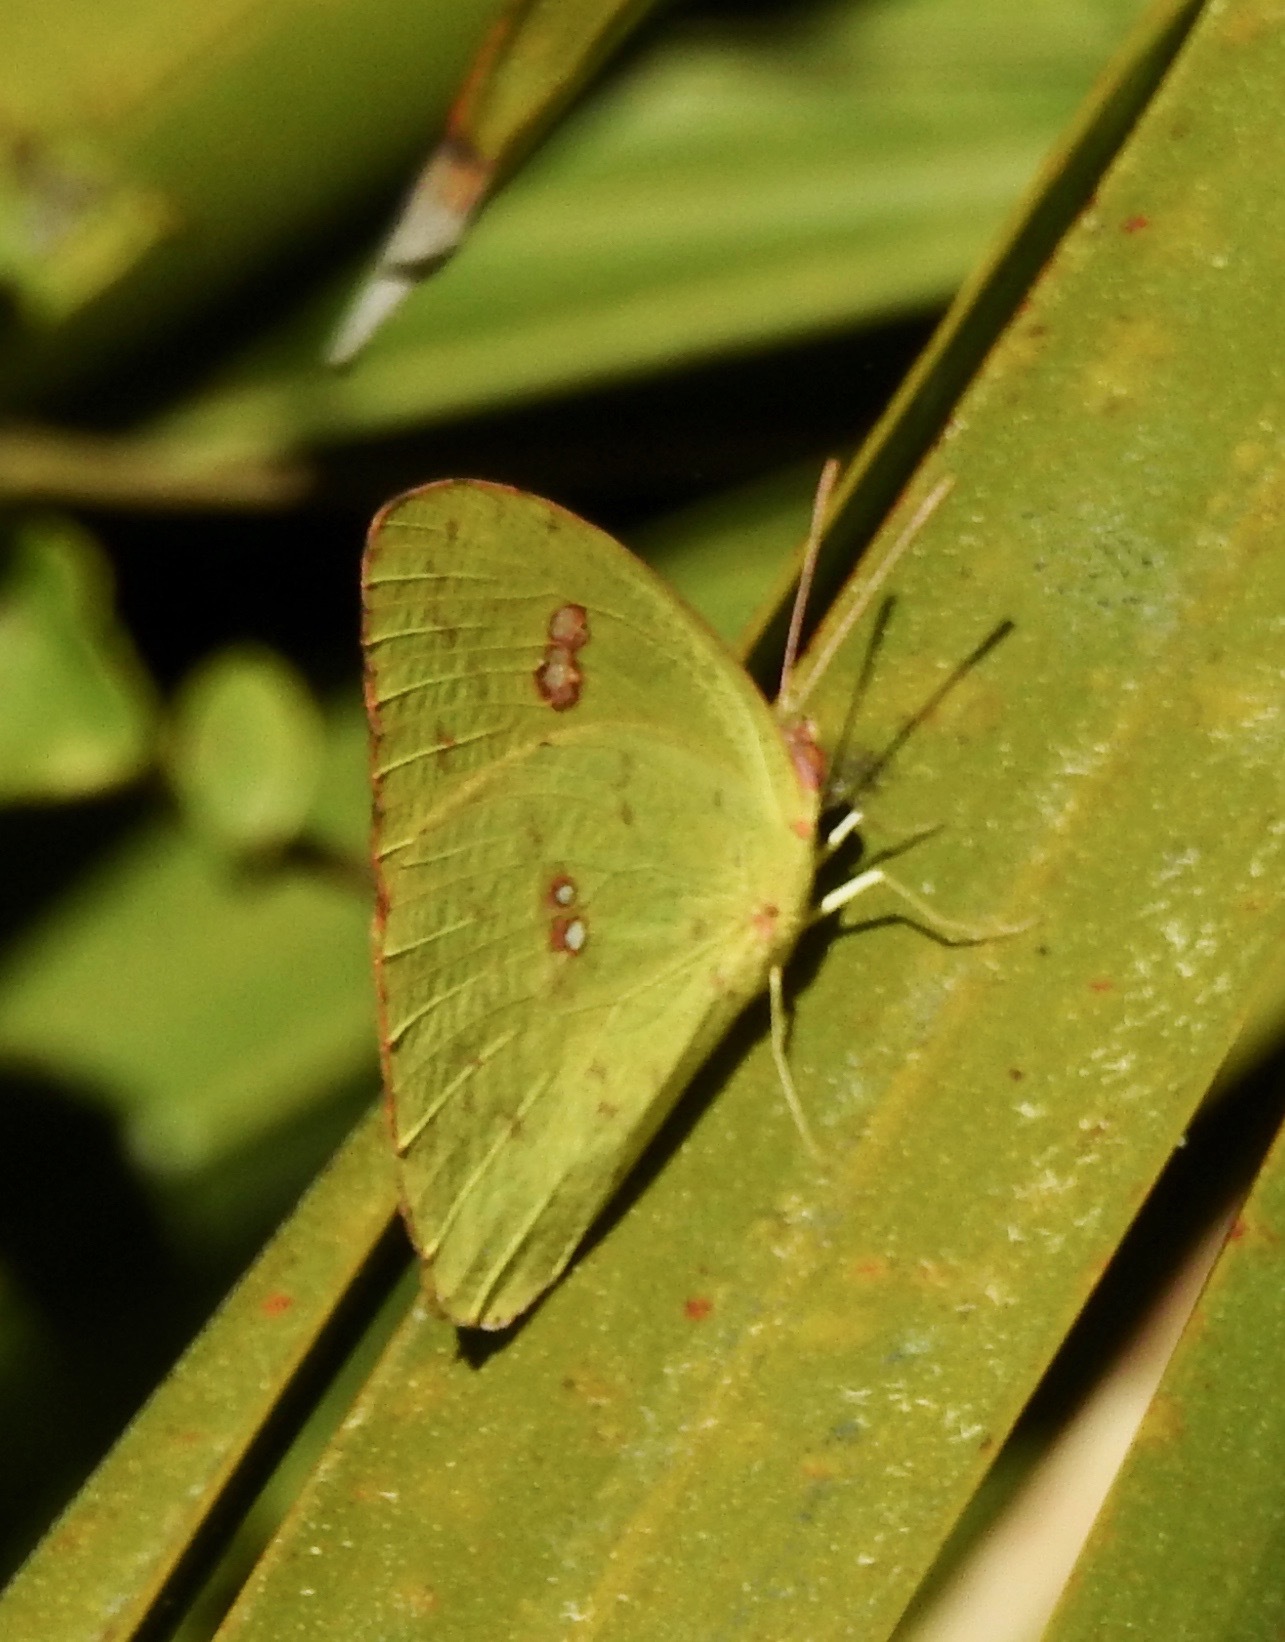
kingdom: Animalia
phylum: Arthropoda
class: Insecta
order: Lepidoptera
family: Pieridae
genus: Phoebis
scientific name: Phoebis sennae
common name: Cloudless sulphur
